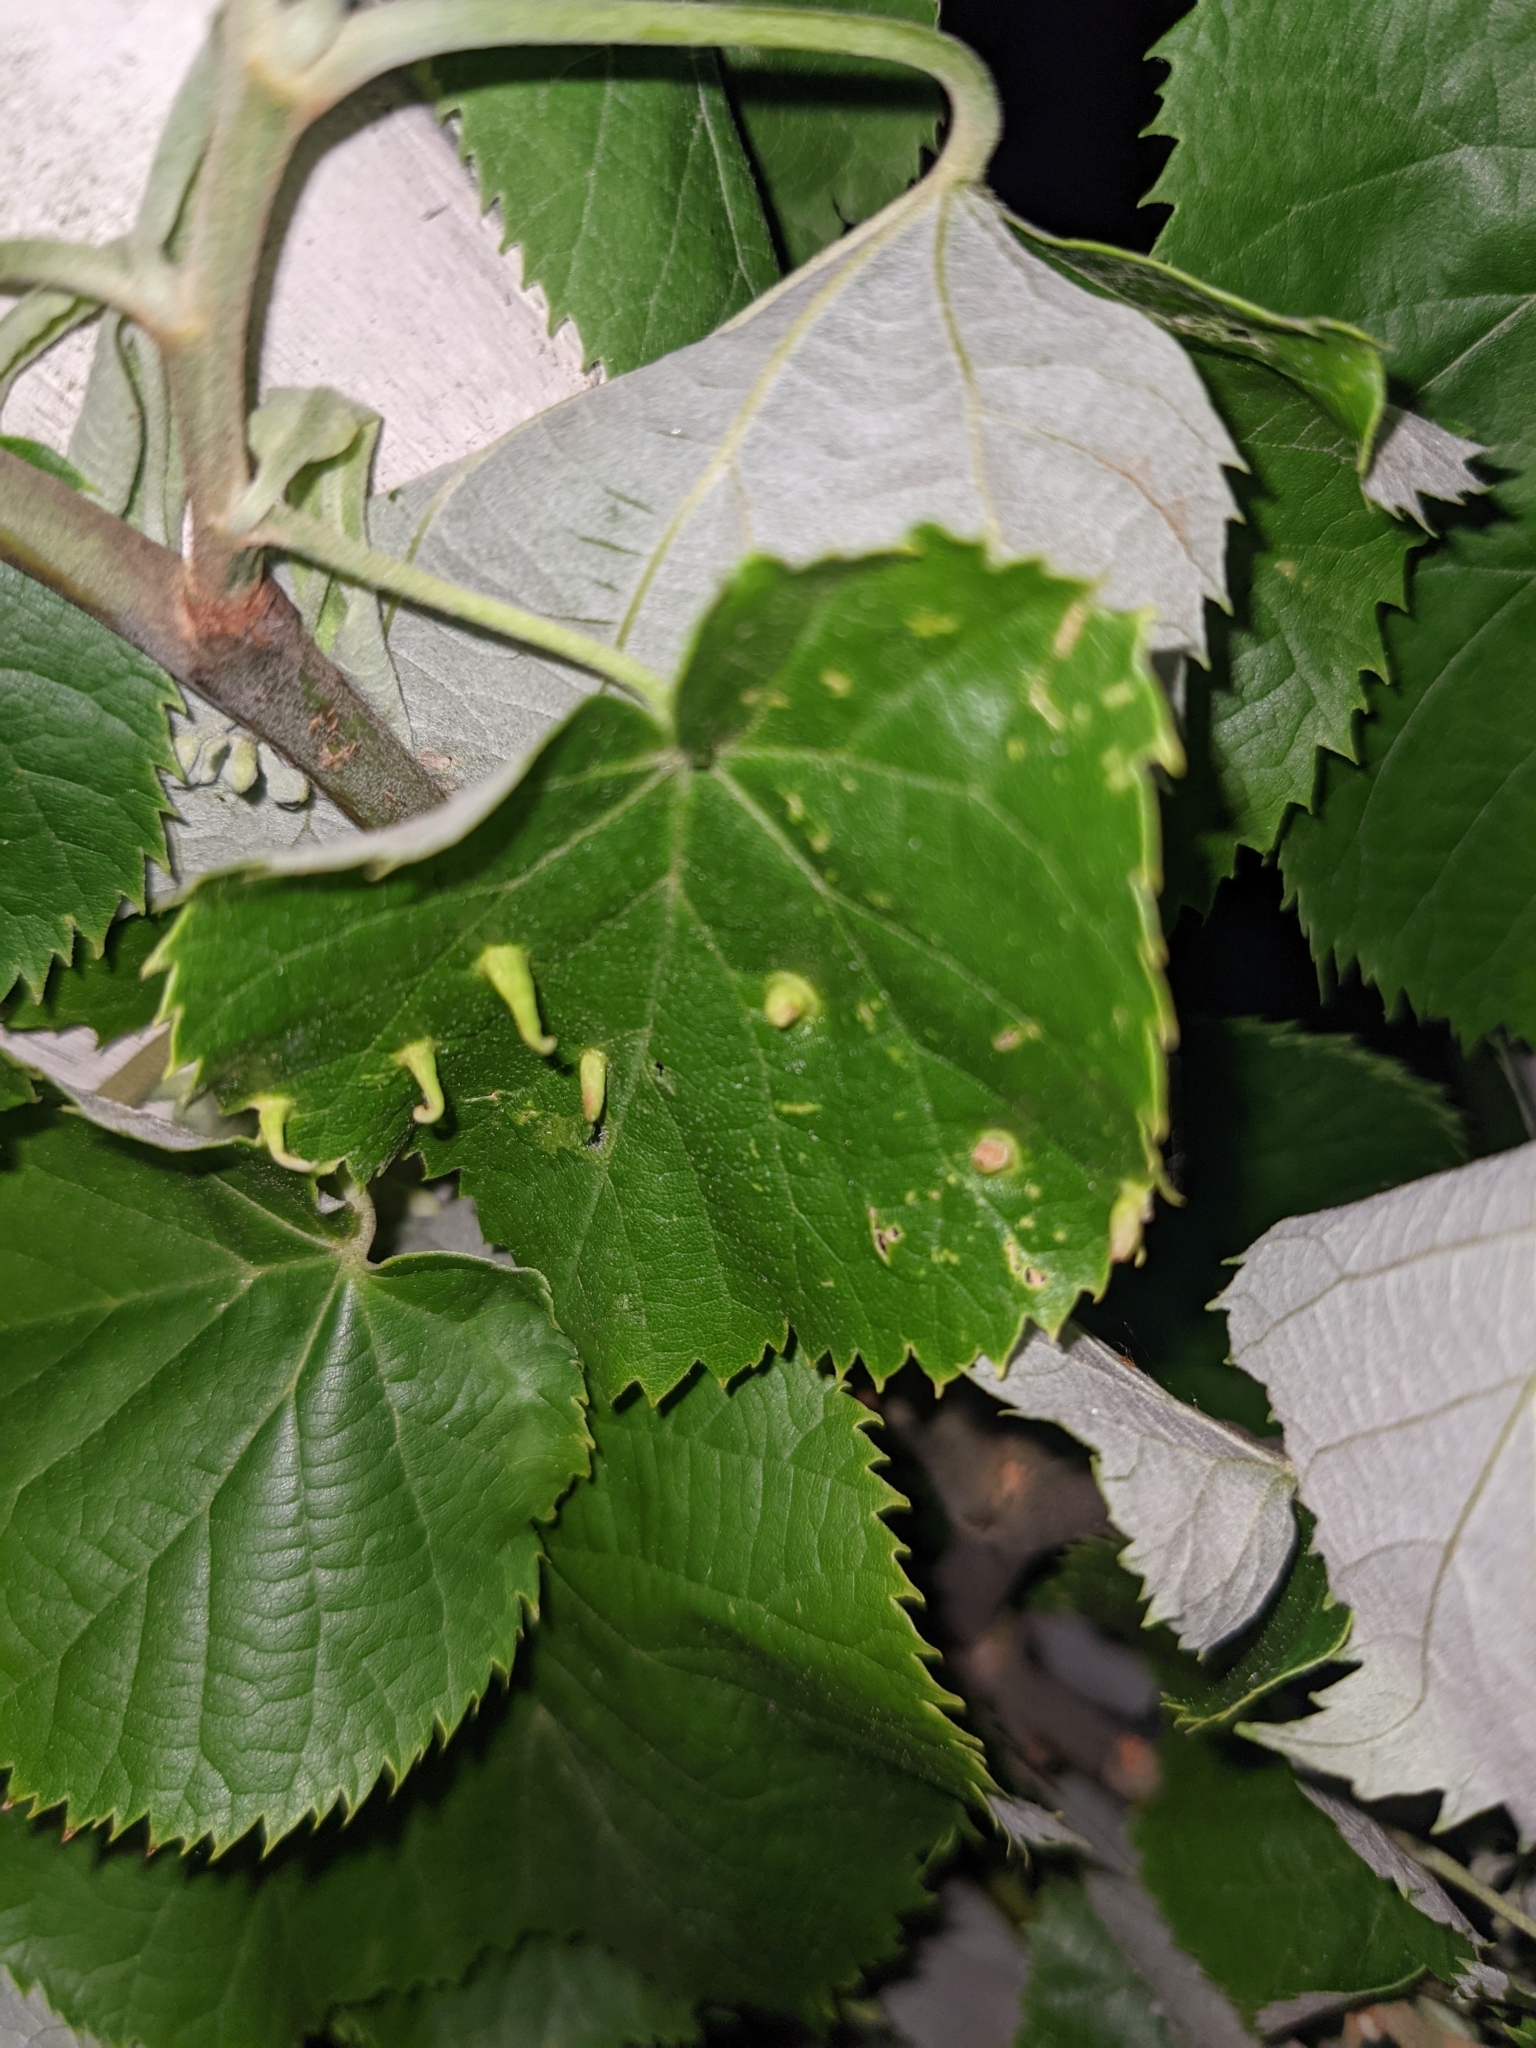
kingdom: Animalia
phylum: Arthropoda
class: Arachnida
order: Trombidiformes
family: Eriophyidae
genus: Eriophyes
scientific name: Eriophyes tiliae
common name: Red nail gall mite
